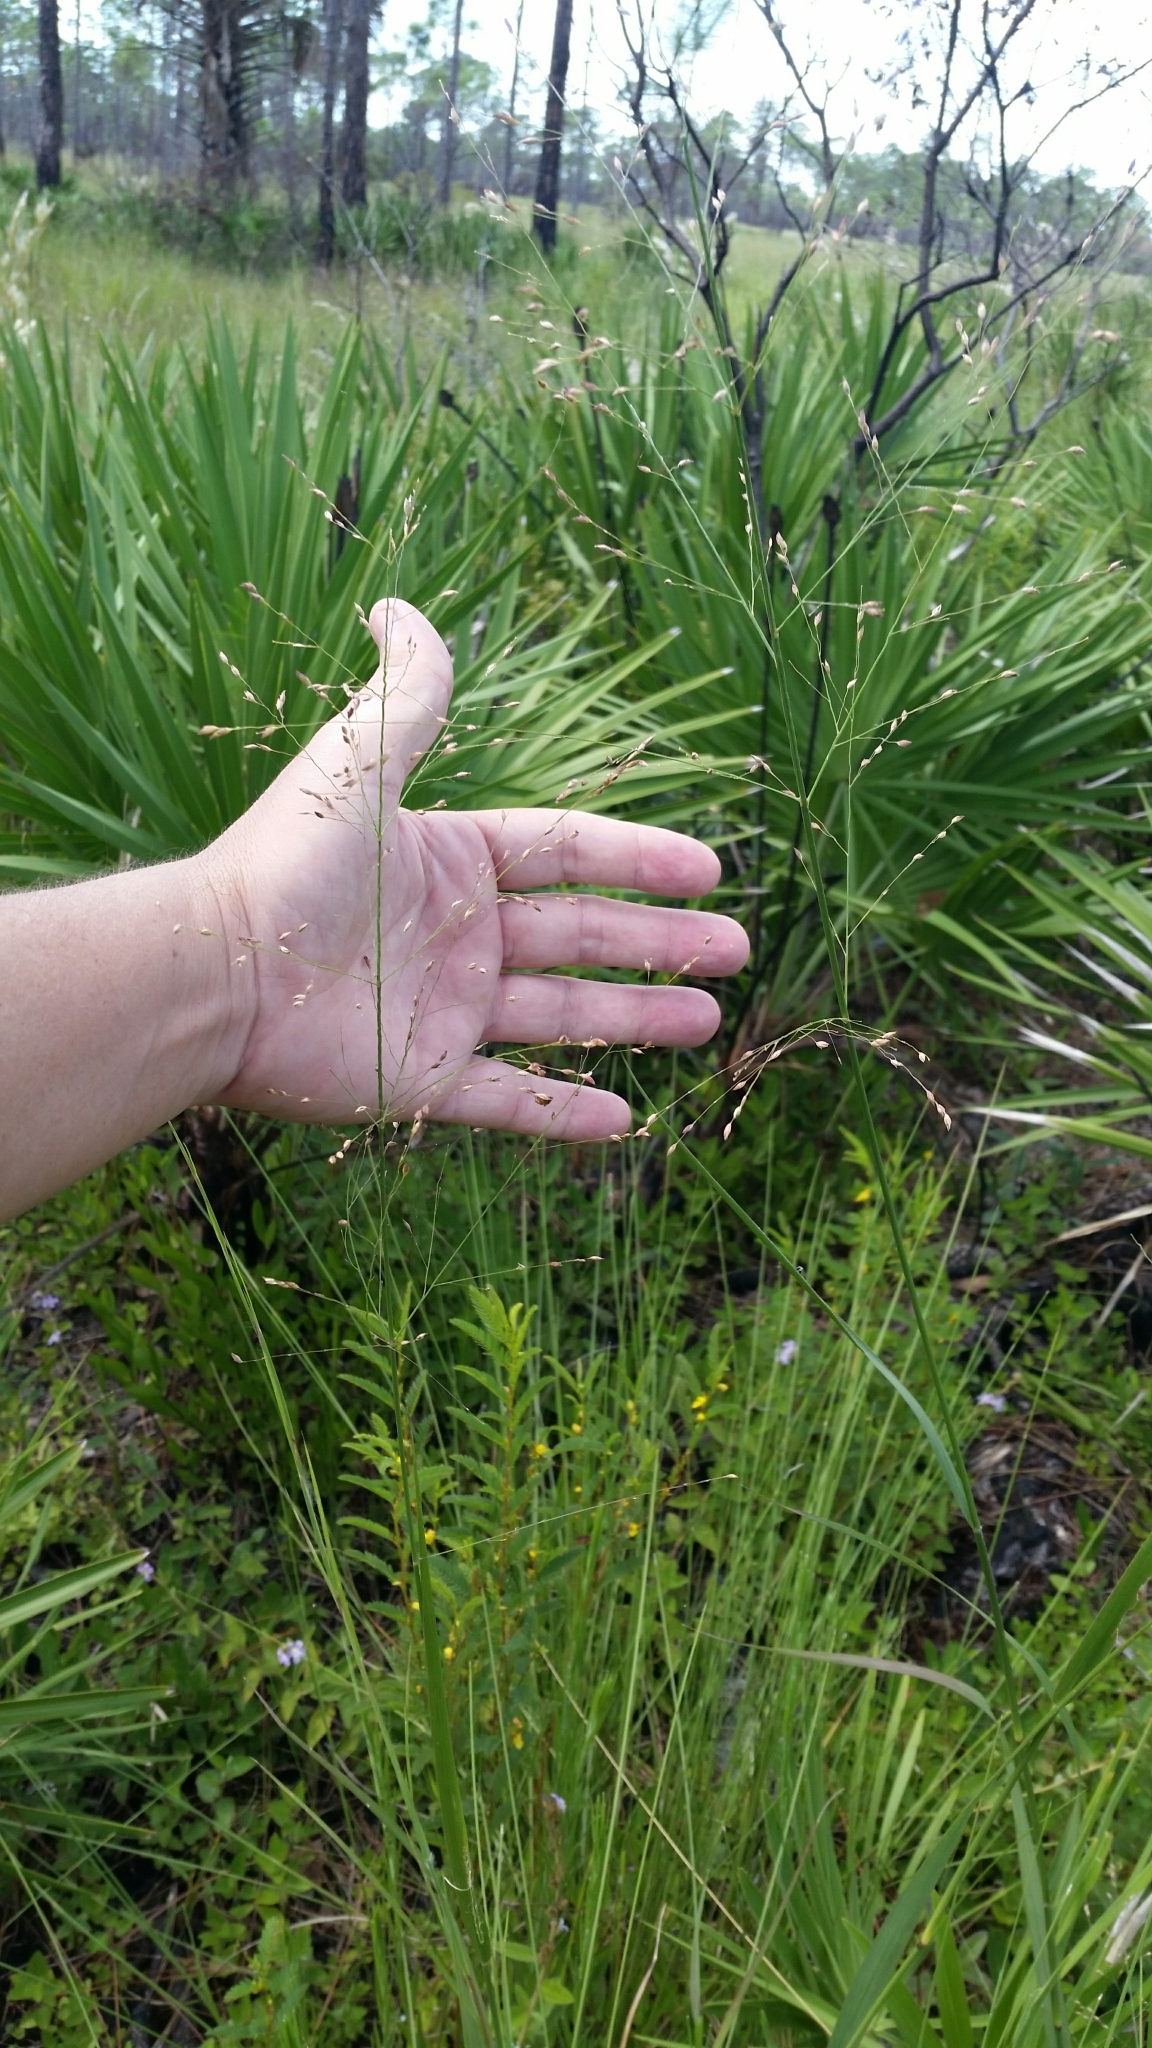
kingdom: Plantae
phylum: Tracheophyta
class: Liliopsida
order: Poales
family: Poaceae
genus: Panicum
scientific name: Panicum virgatum
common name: Switchgrass
